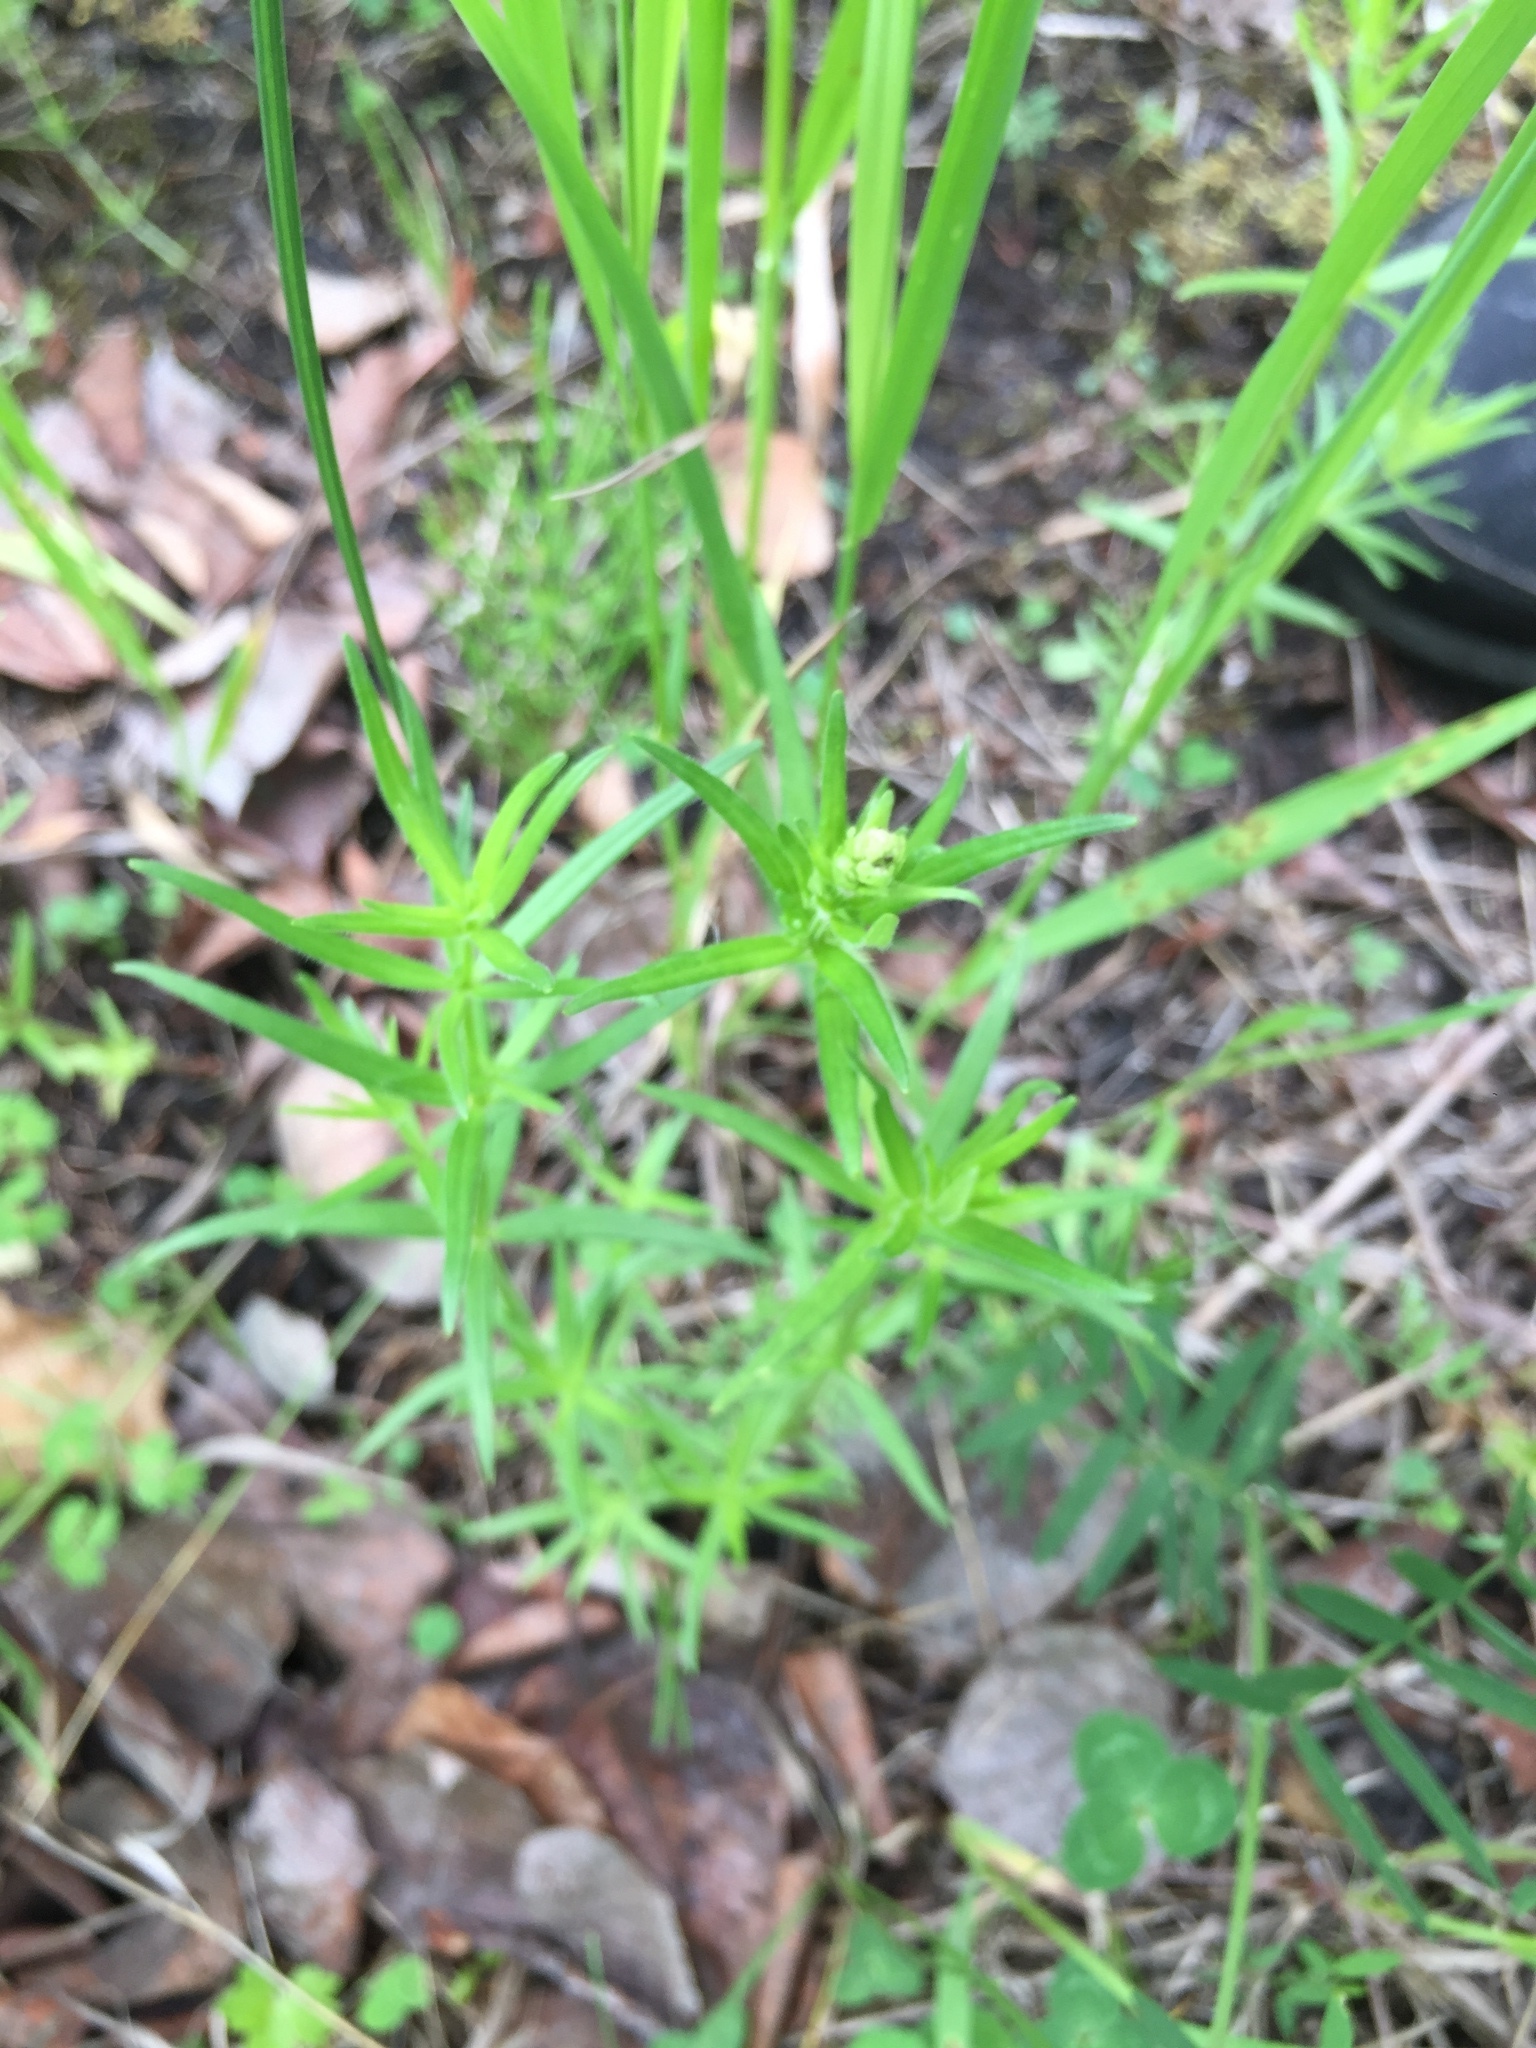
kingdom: Plantae
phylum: Tracheophyta
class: Magnoliopsida
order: Gentianales
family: Rubiaceae
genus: Galium
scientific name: Galium boreale
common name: Northern bedstraw
